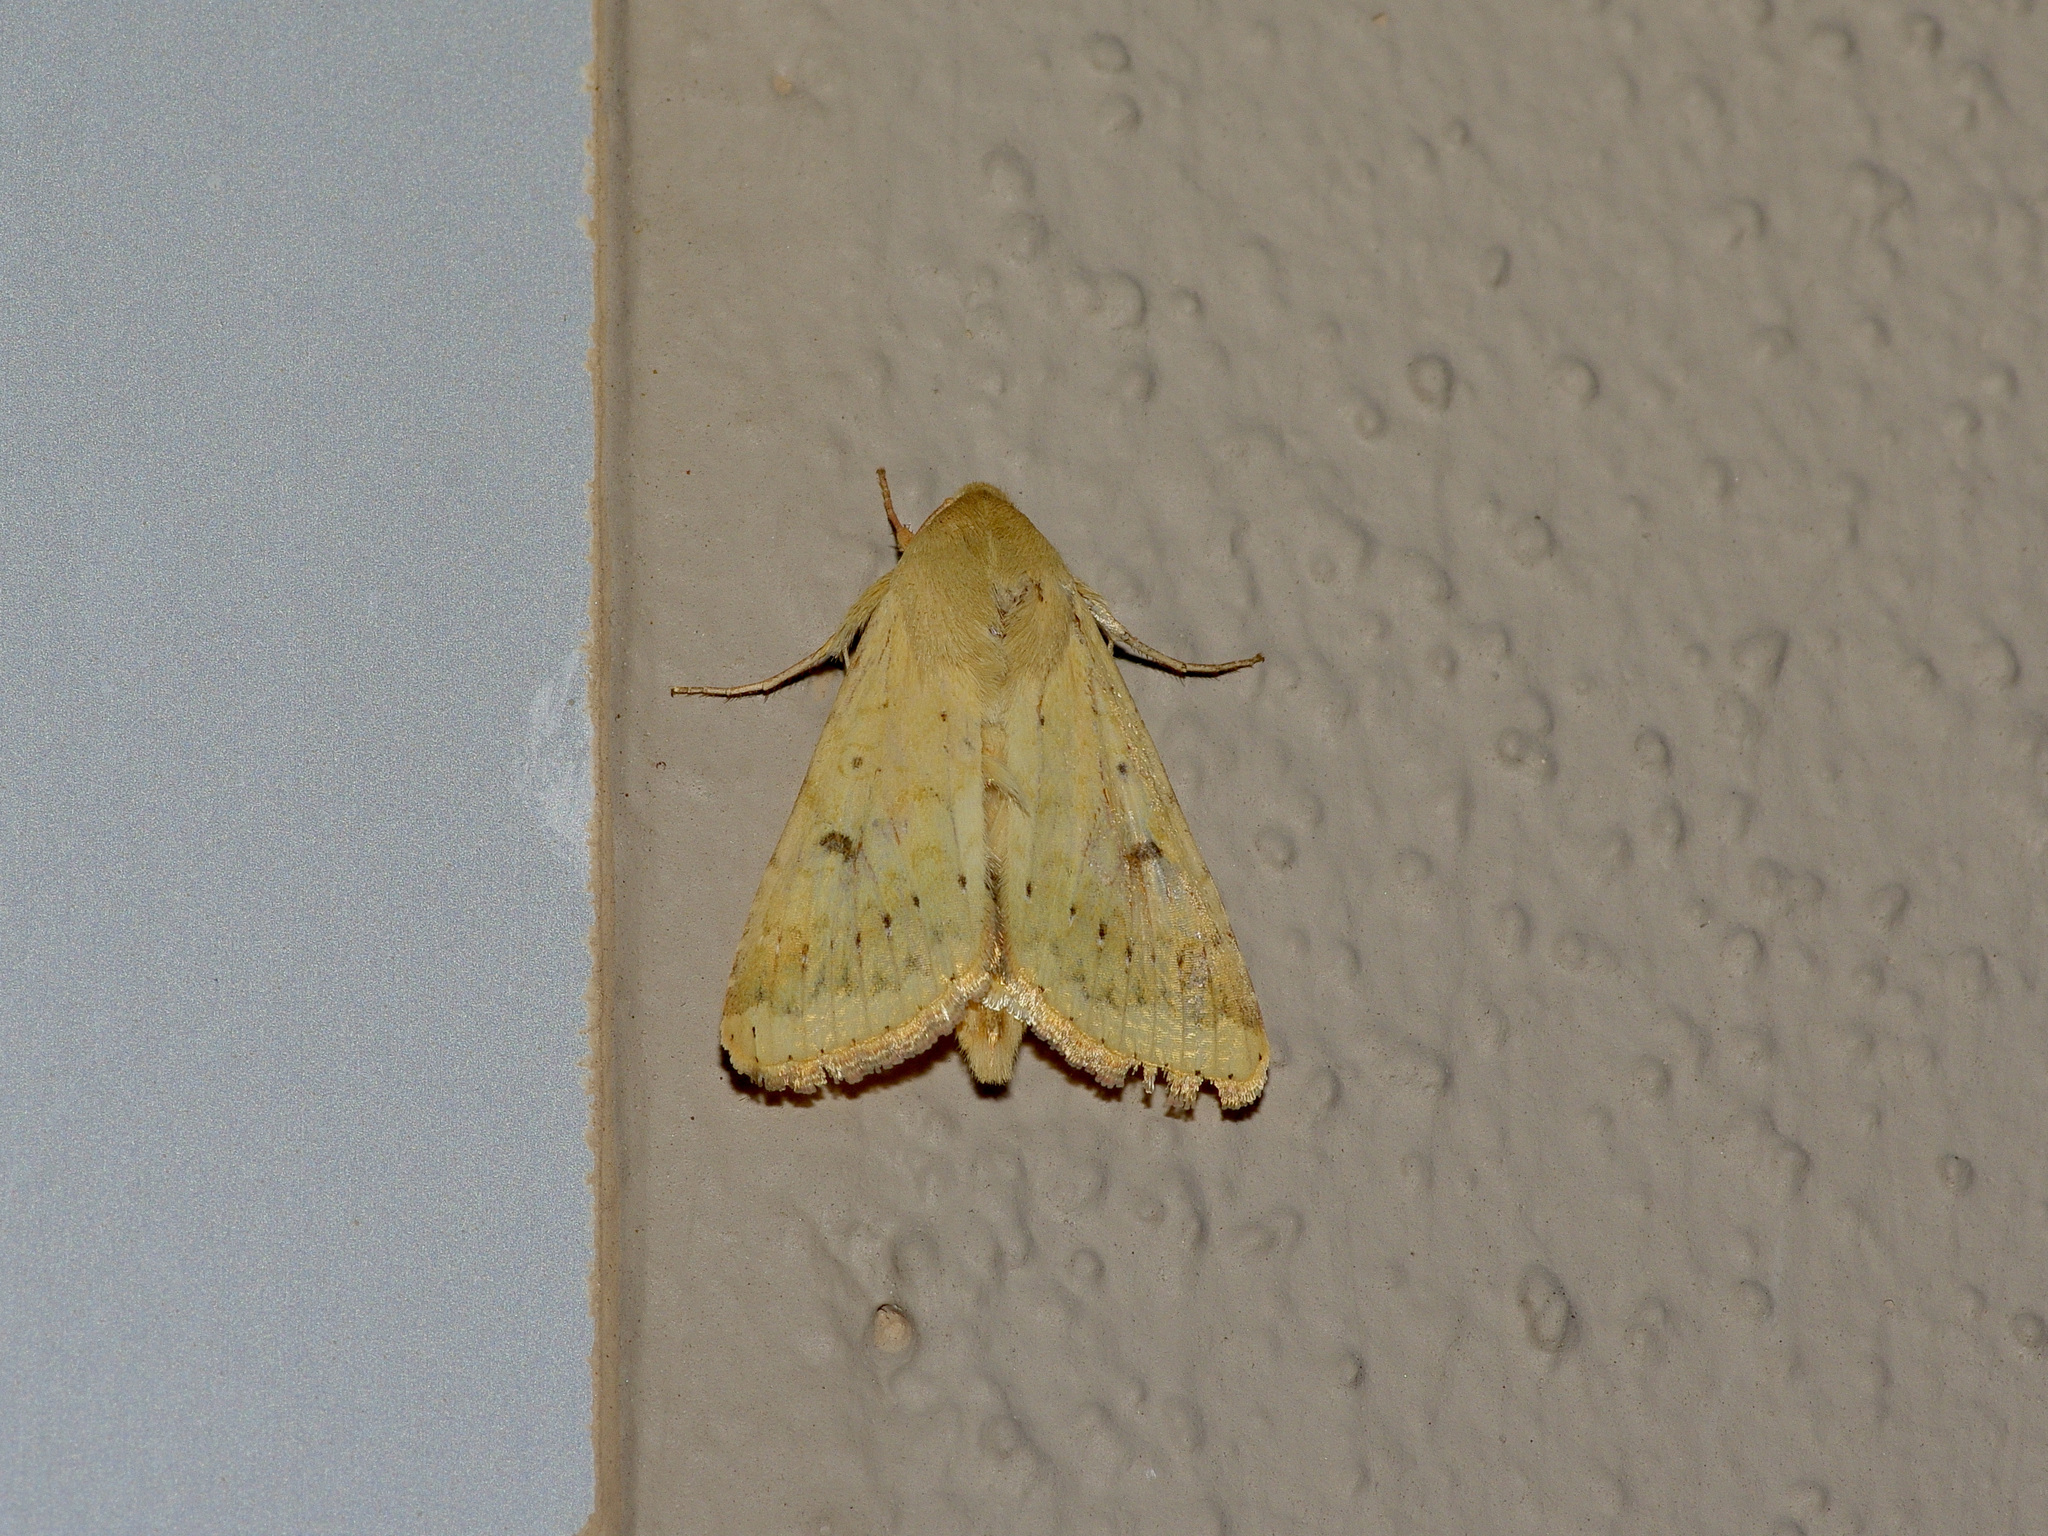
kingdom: Animalia
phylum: Arthropoda
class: Insecta
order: Lepidoptera
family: Noctuidae
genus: Helicoverpa
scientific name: Helicoverpa zea
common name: Bollworm
